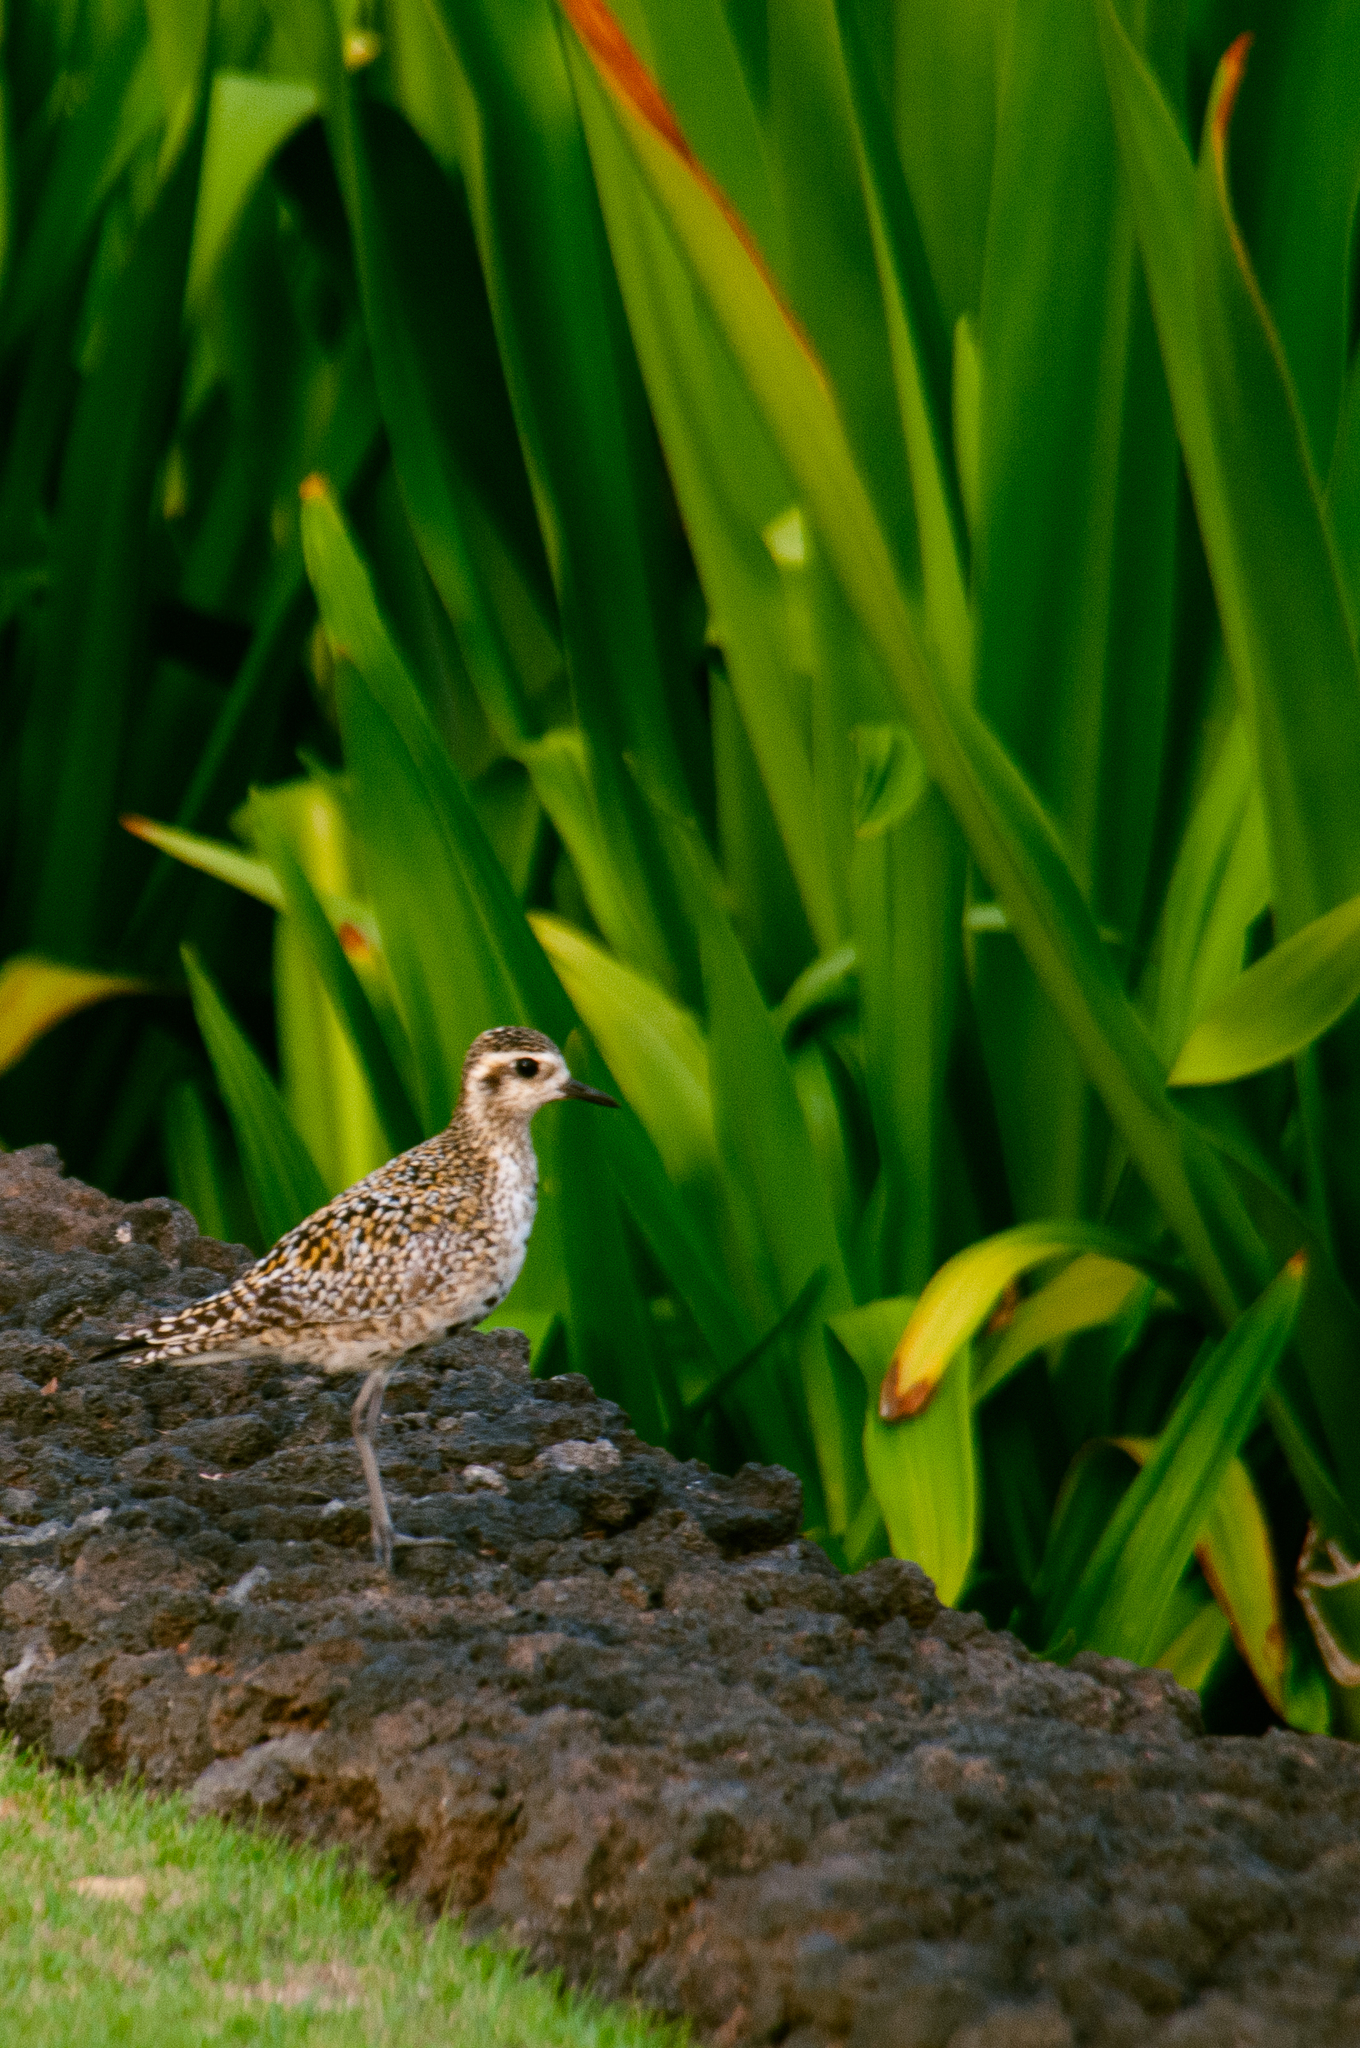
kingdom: Animalia
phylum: Chordata
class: Aves
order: Charadriiformes
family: Charadriidae
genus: Pluvialis
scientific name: Pluvialis fulva
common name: Pacific golden plover
